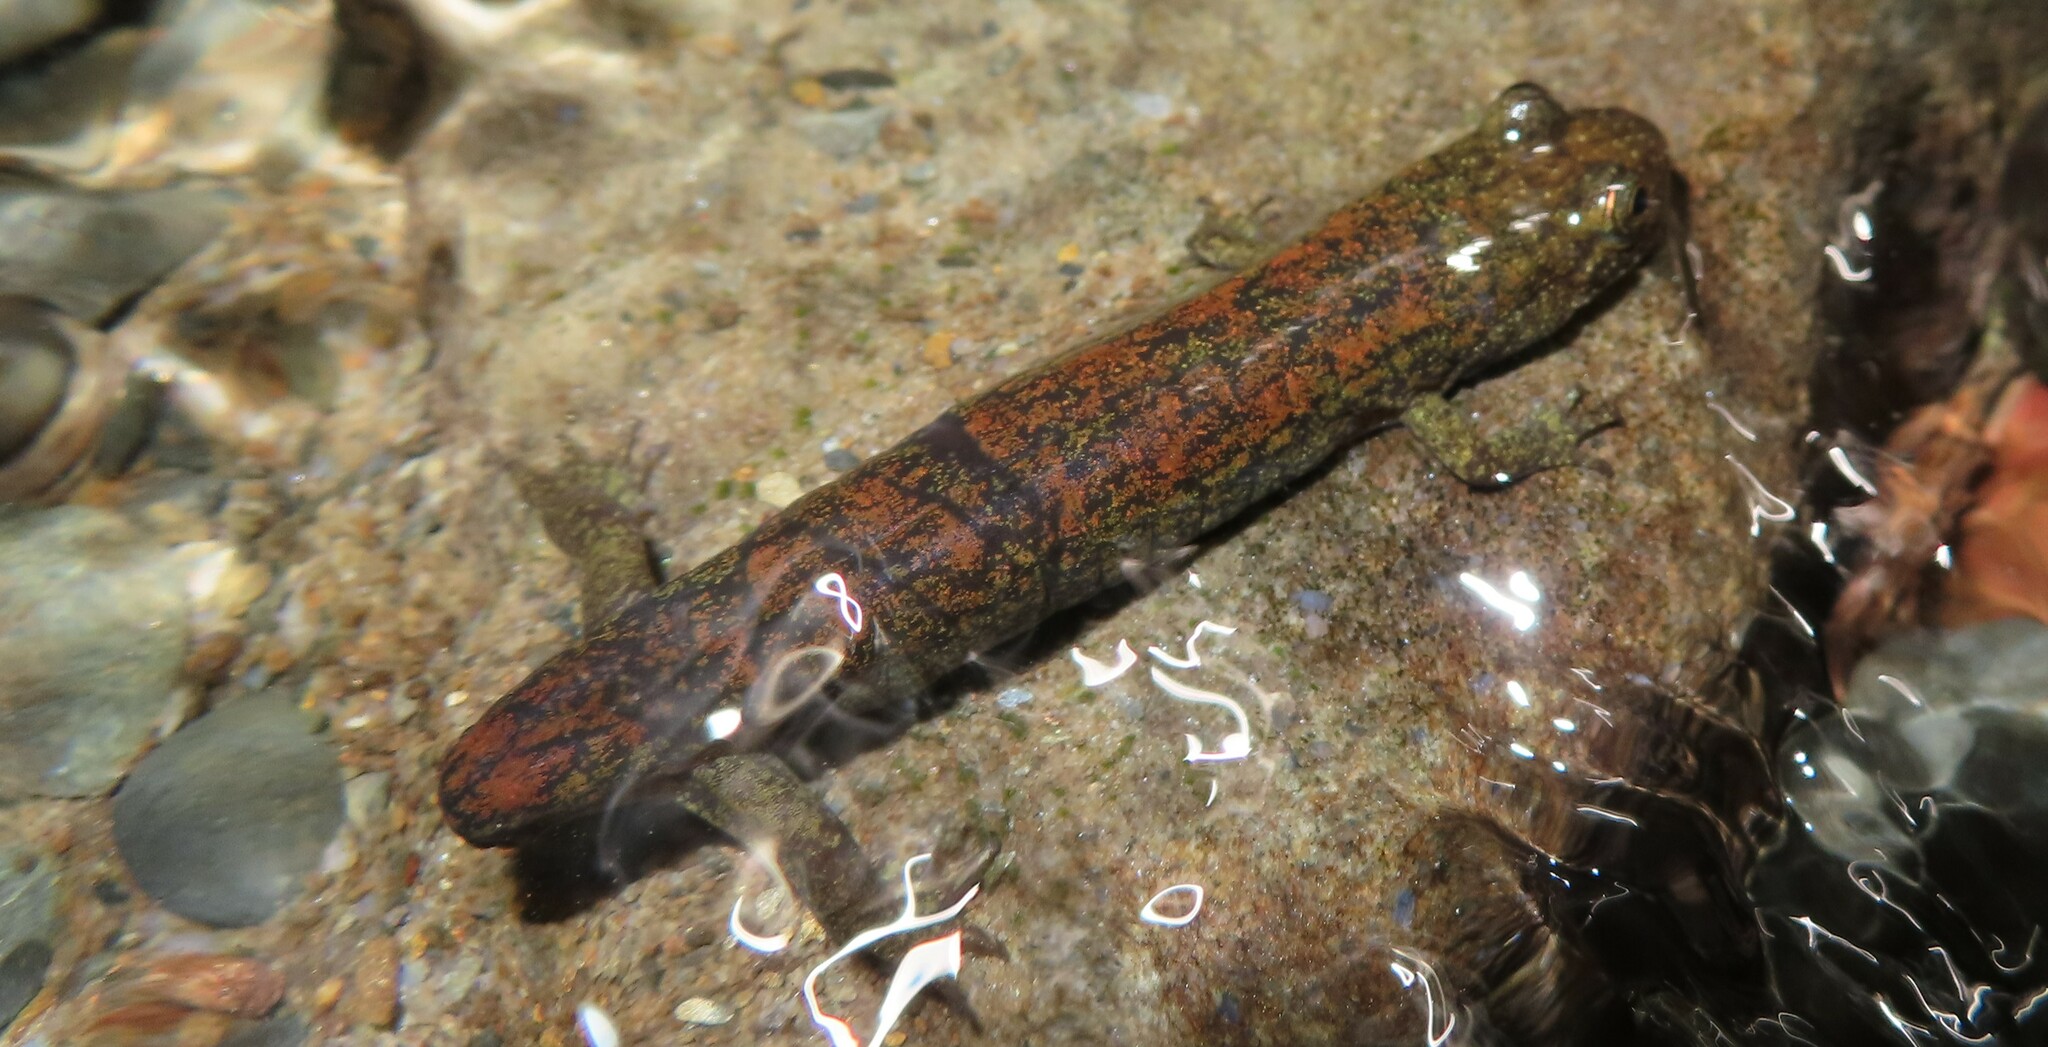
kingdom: Animalia
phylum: Chordata
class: Amphibia
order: Caudata
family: Plethodontidae
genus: Desmognathus
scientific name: Desmognathus
